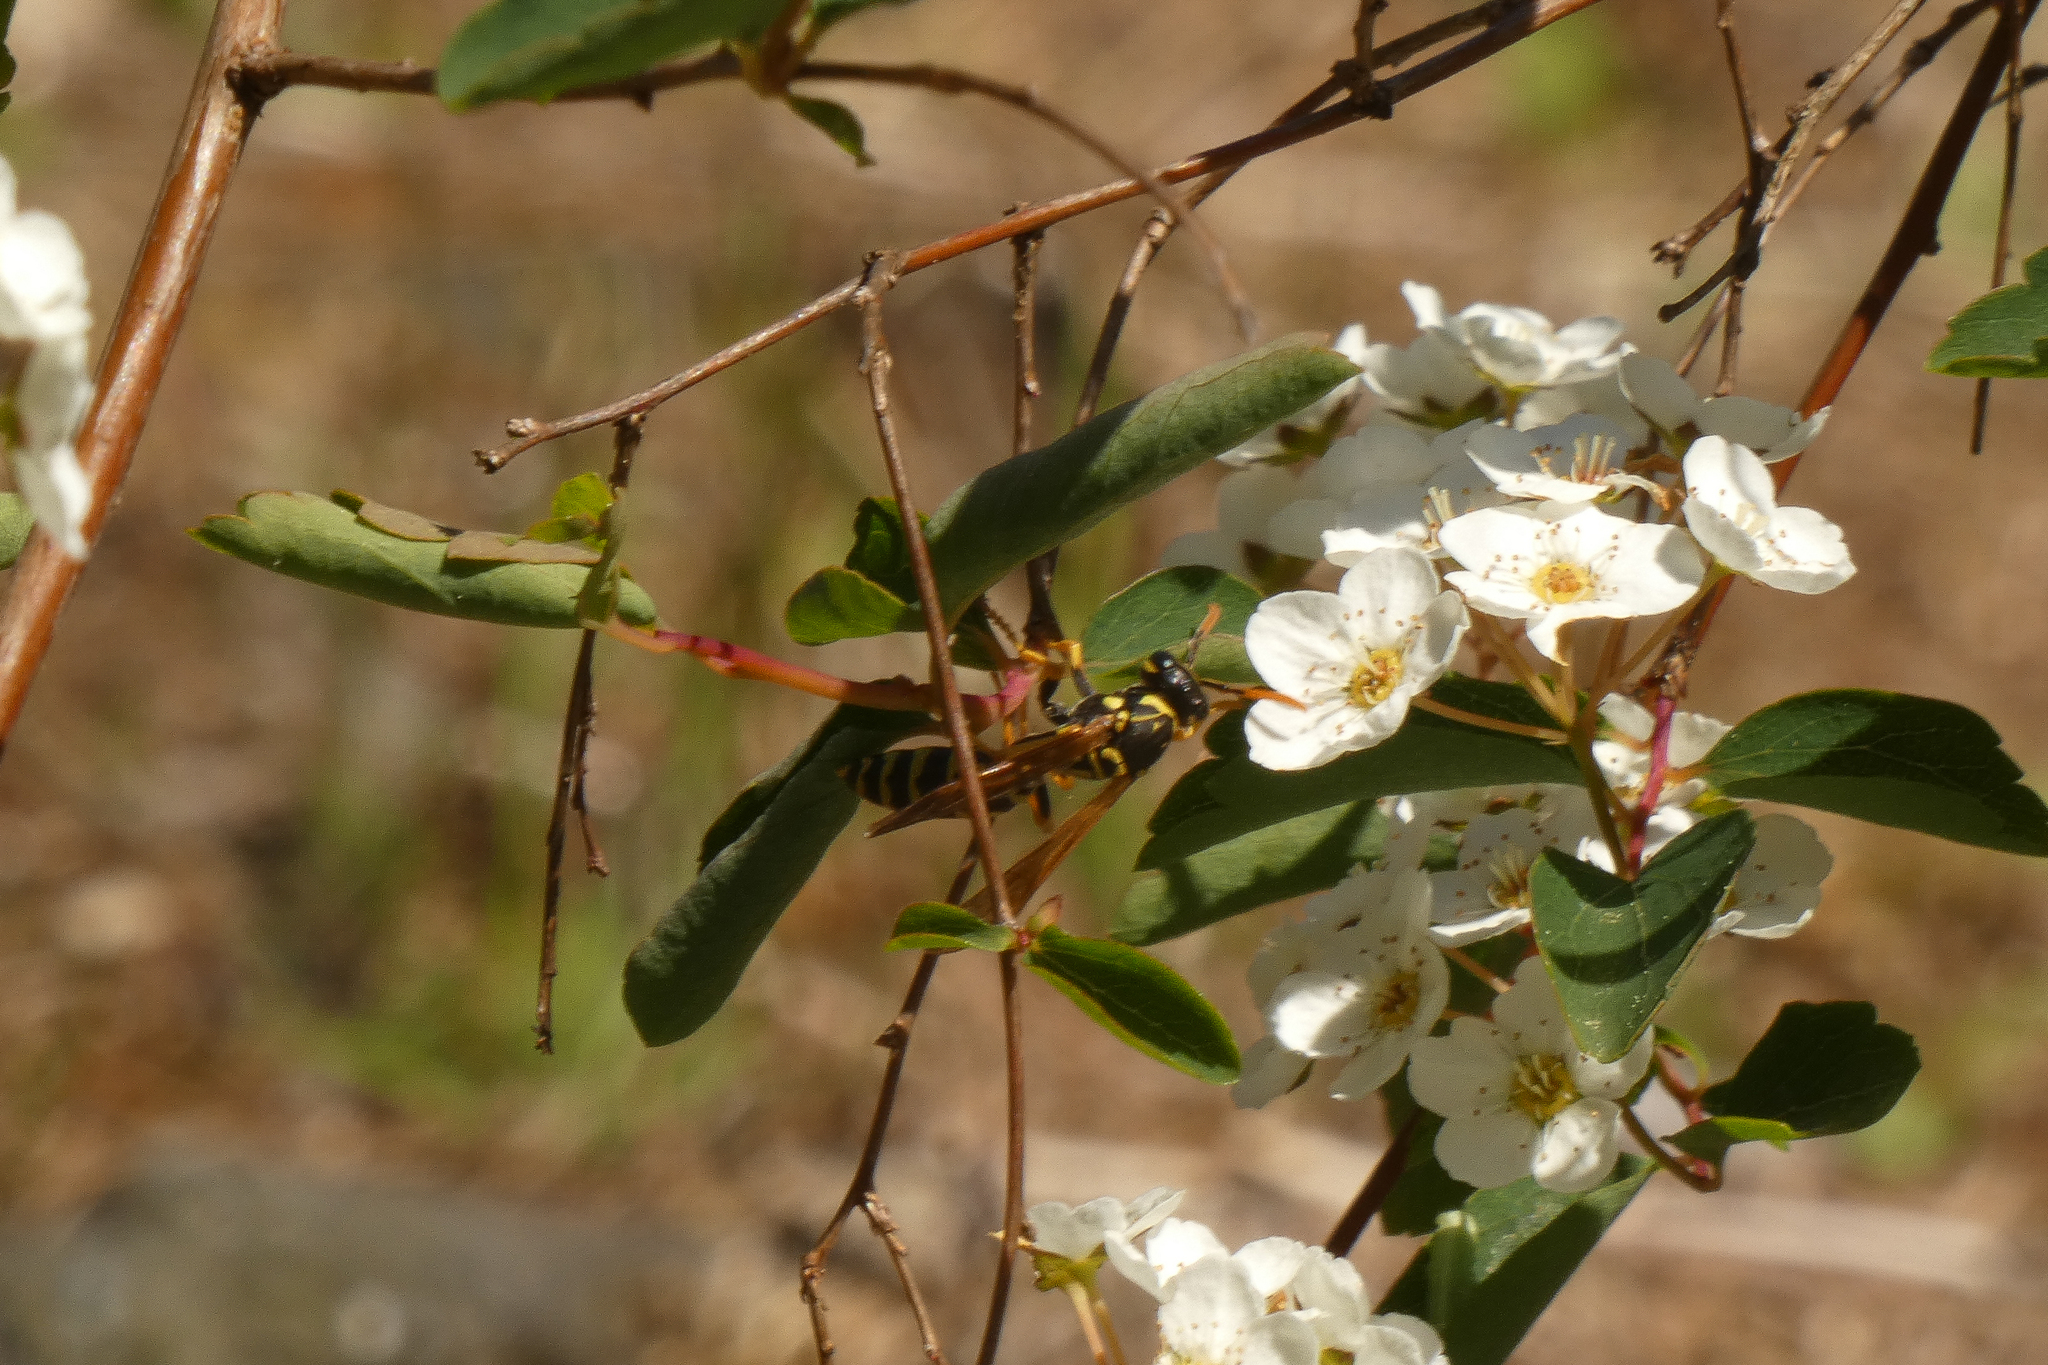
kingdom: Animalia
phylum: Arthropoda
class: Insecta
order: Hymenoptera
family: Eumenidae
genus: Polistes
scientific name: Polistes dominula
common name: Paper wasp
